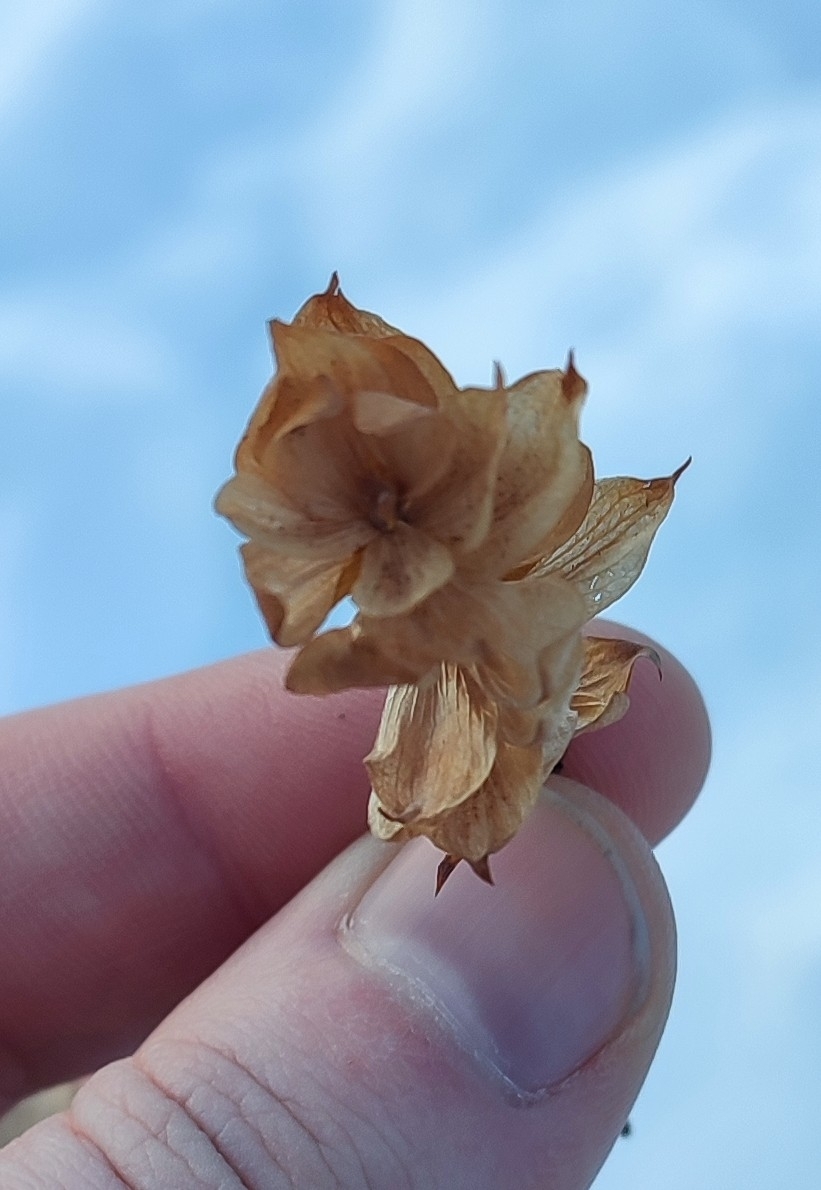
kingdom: Plantae
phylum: Tracheophyta
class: Magnoliopsida
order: Rosales
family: Cannabaceae
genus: Humulus
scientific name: Humulus lupulus
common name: Hop
